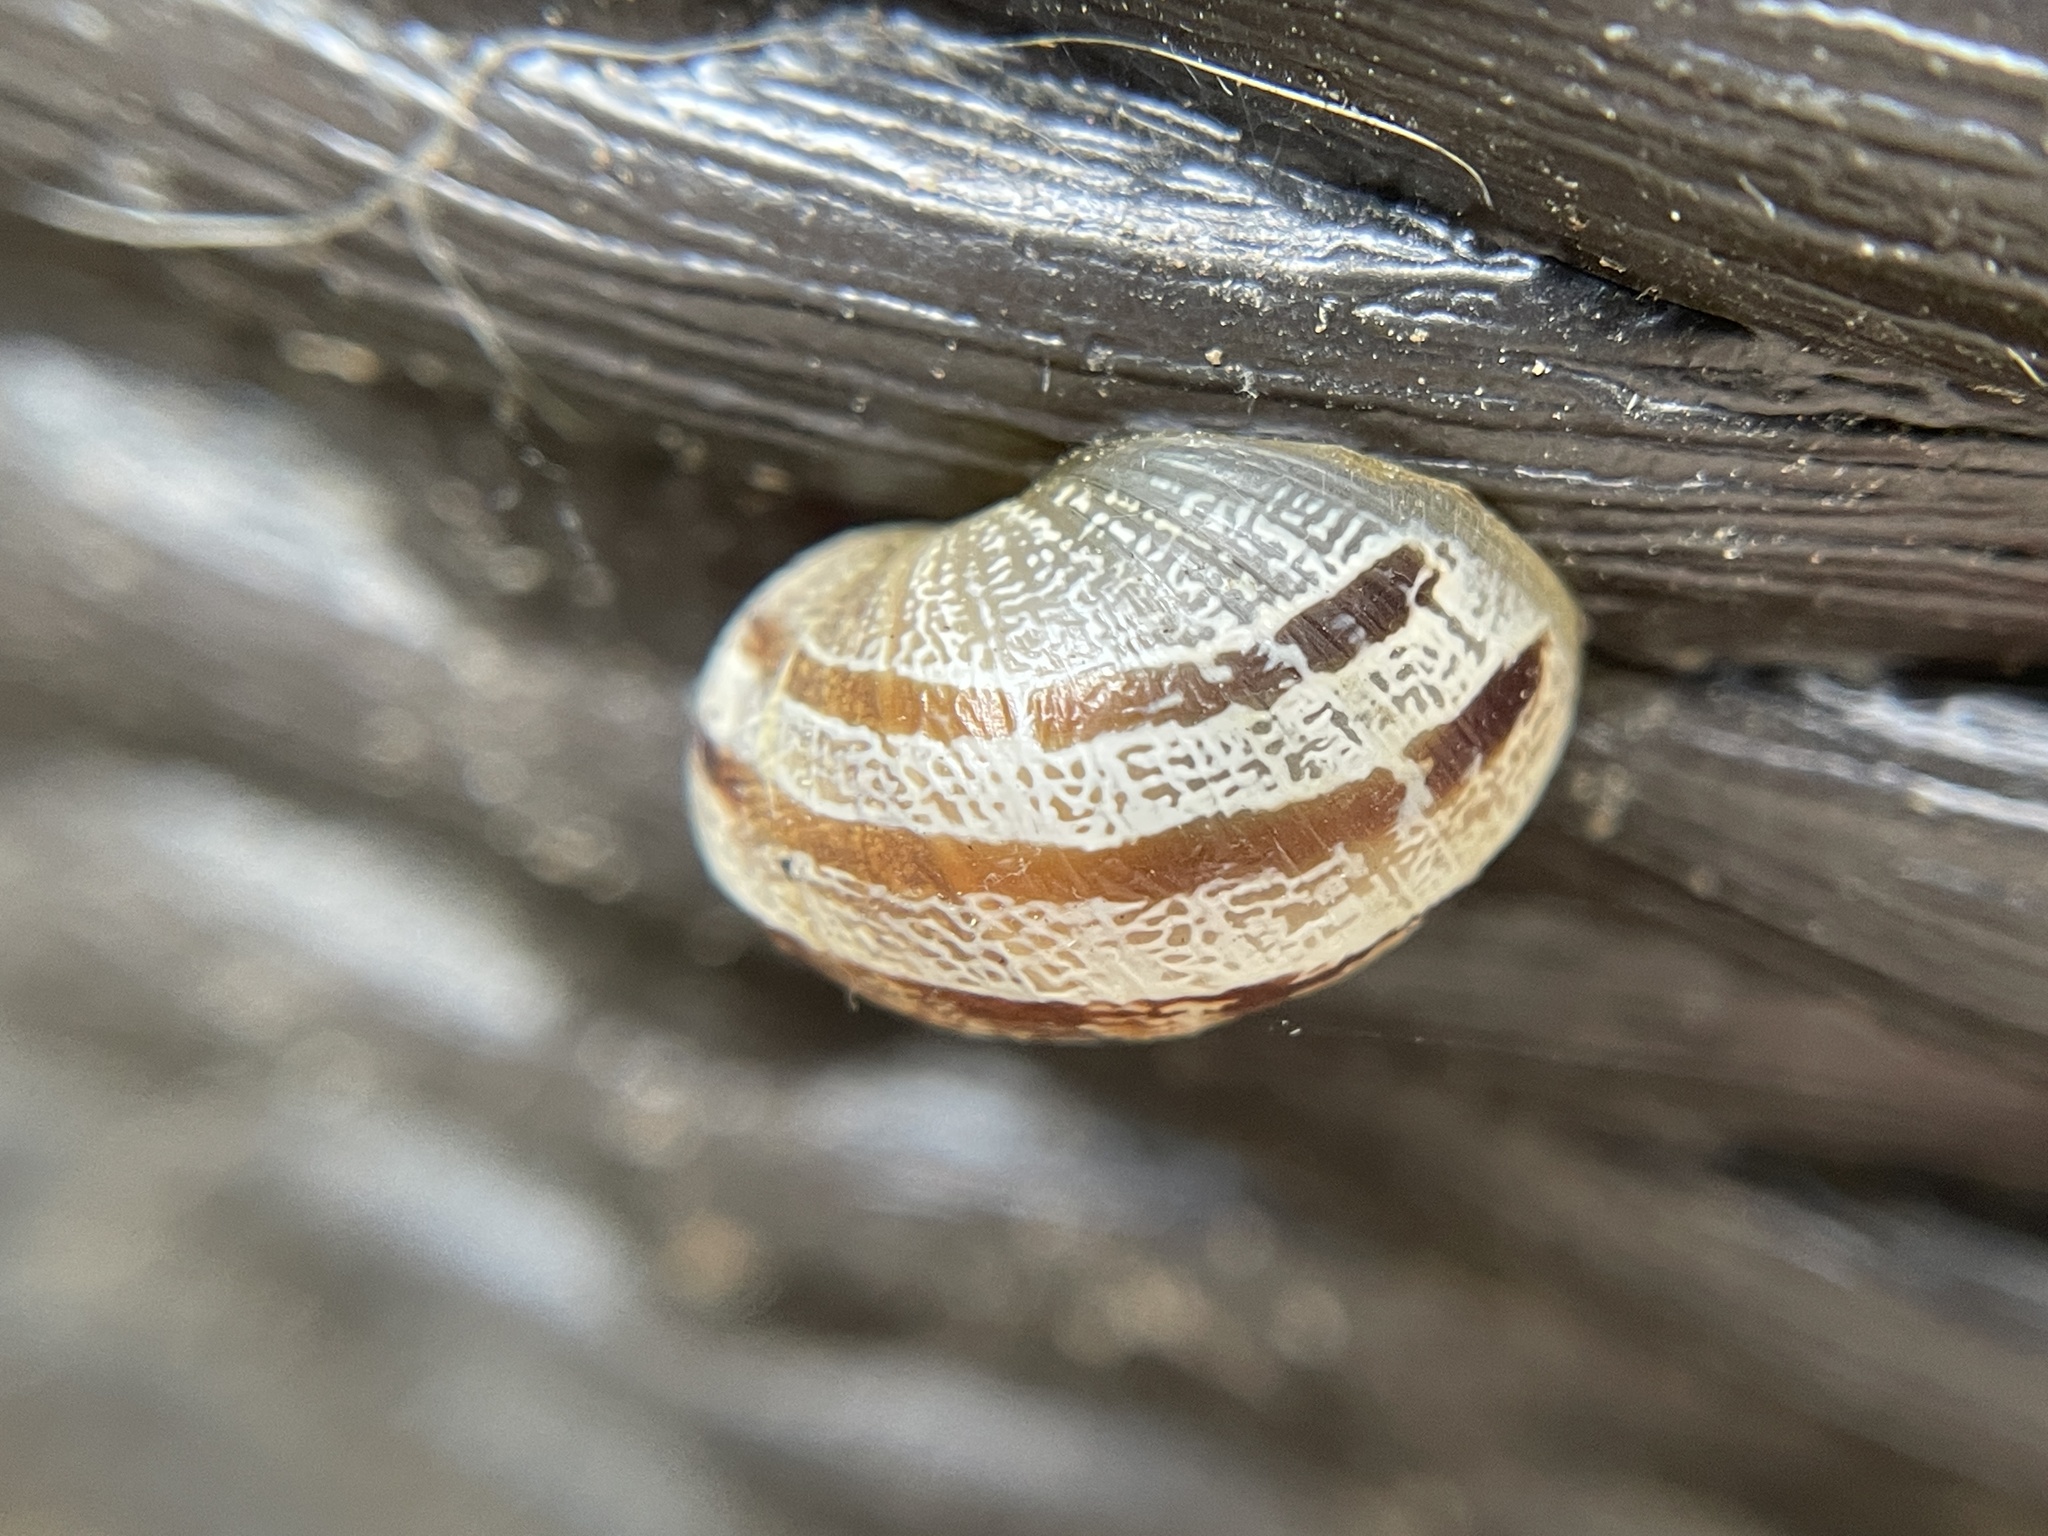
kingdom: Animalia
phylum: Mollusca
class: Gastropoda
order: Stylommatophora
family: Helicidae
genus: Cornu
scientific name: Cornu aspersum
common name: Brown garden snail
